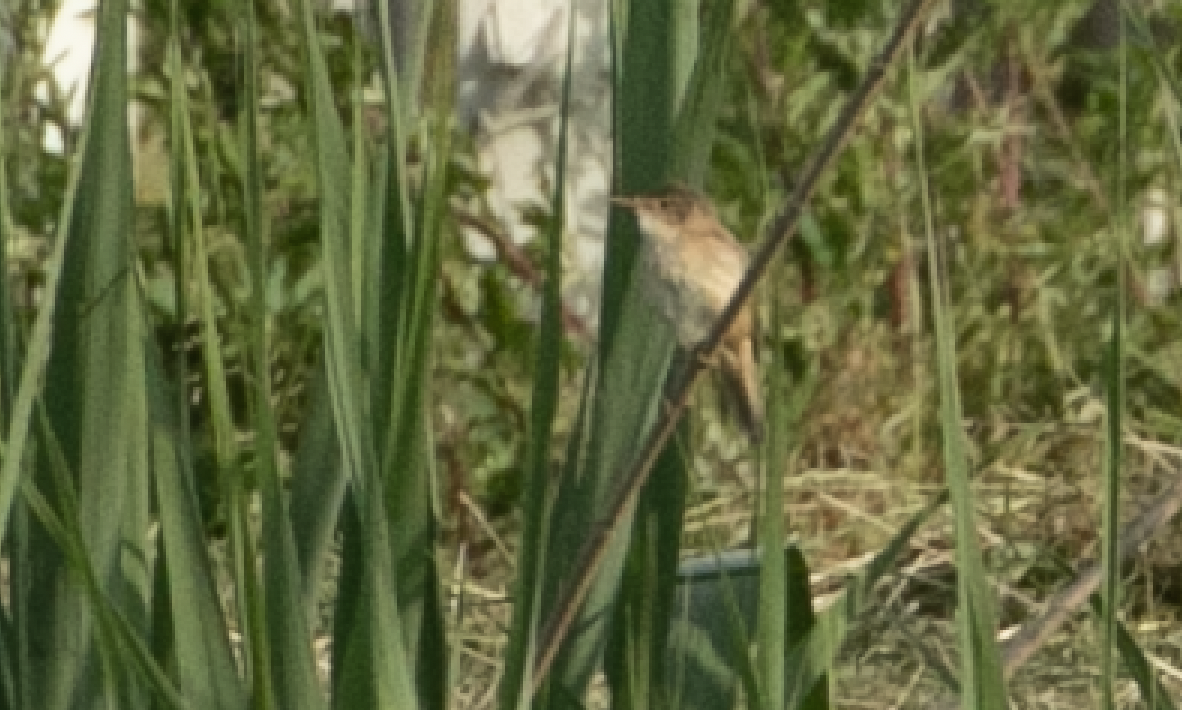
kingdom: Animalia
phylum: Chordata
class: Aves
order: Passeriformes
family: Acrocephalidae
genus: Acrocephalus
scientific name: Acrocephalus scirpaceus
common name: Eurasian reed warbler
